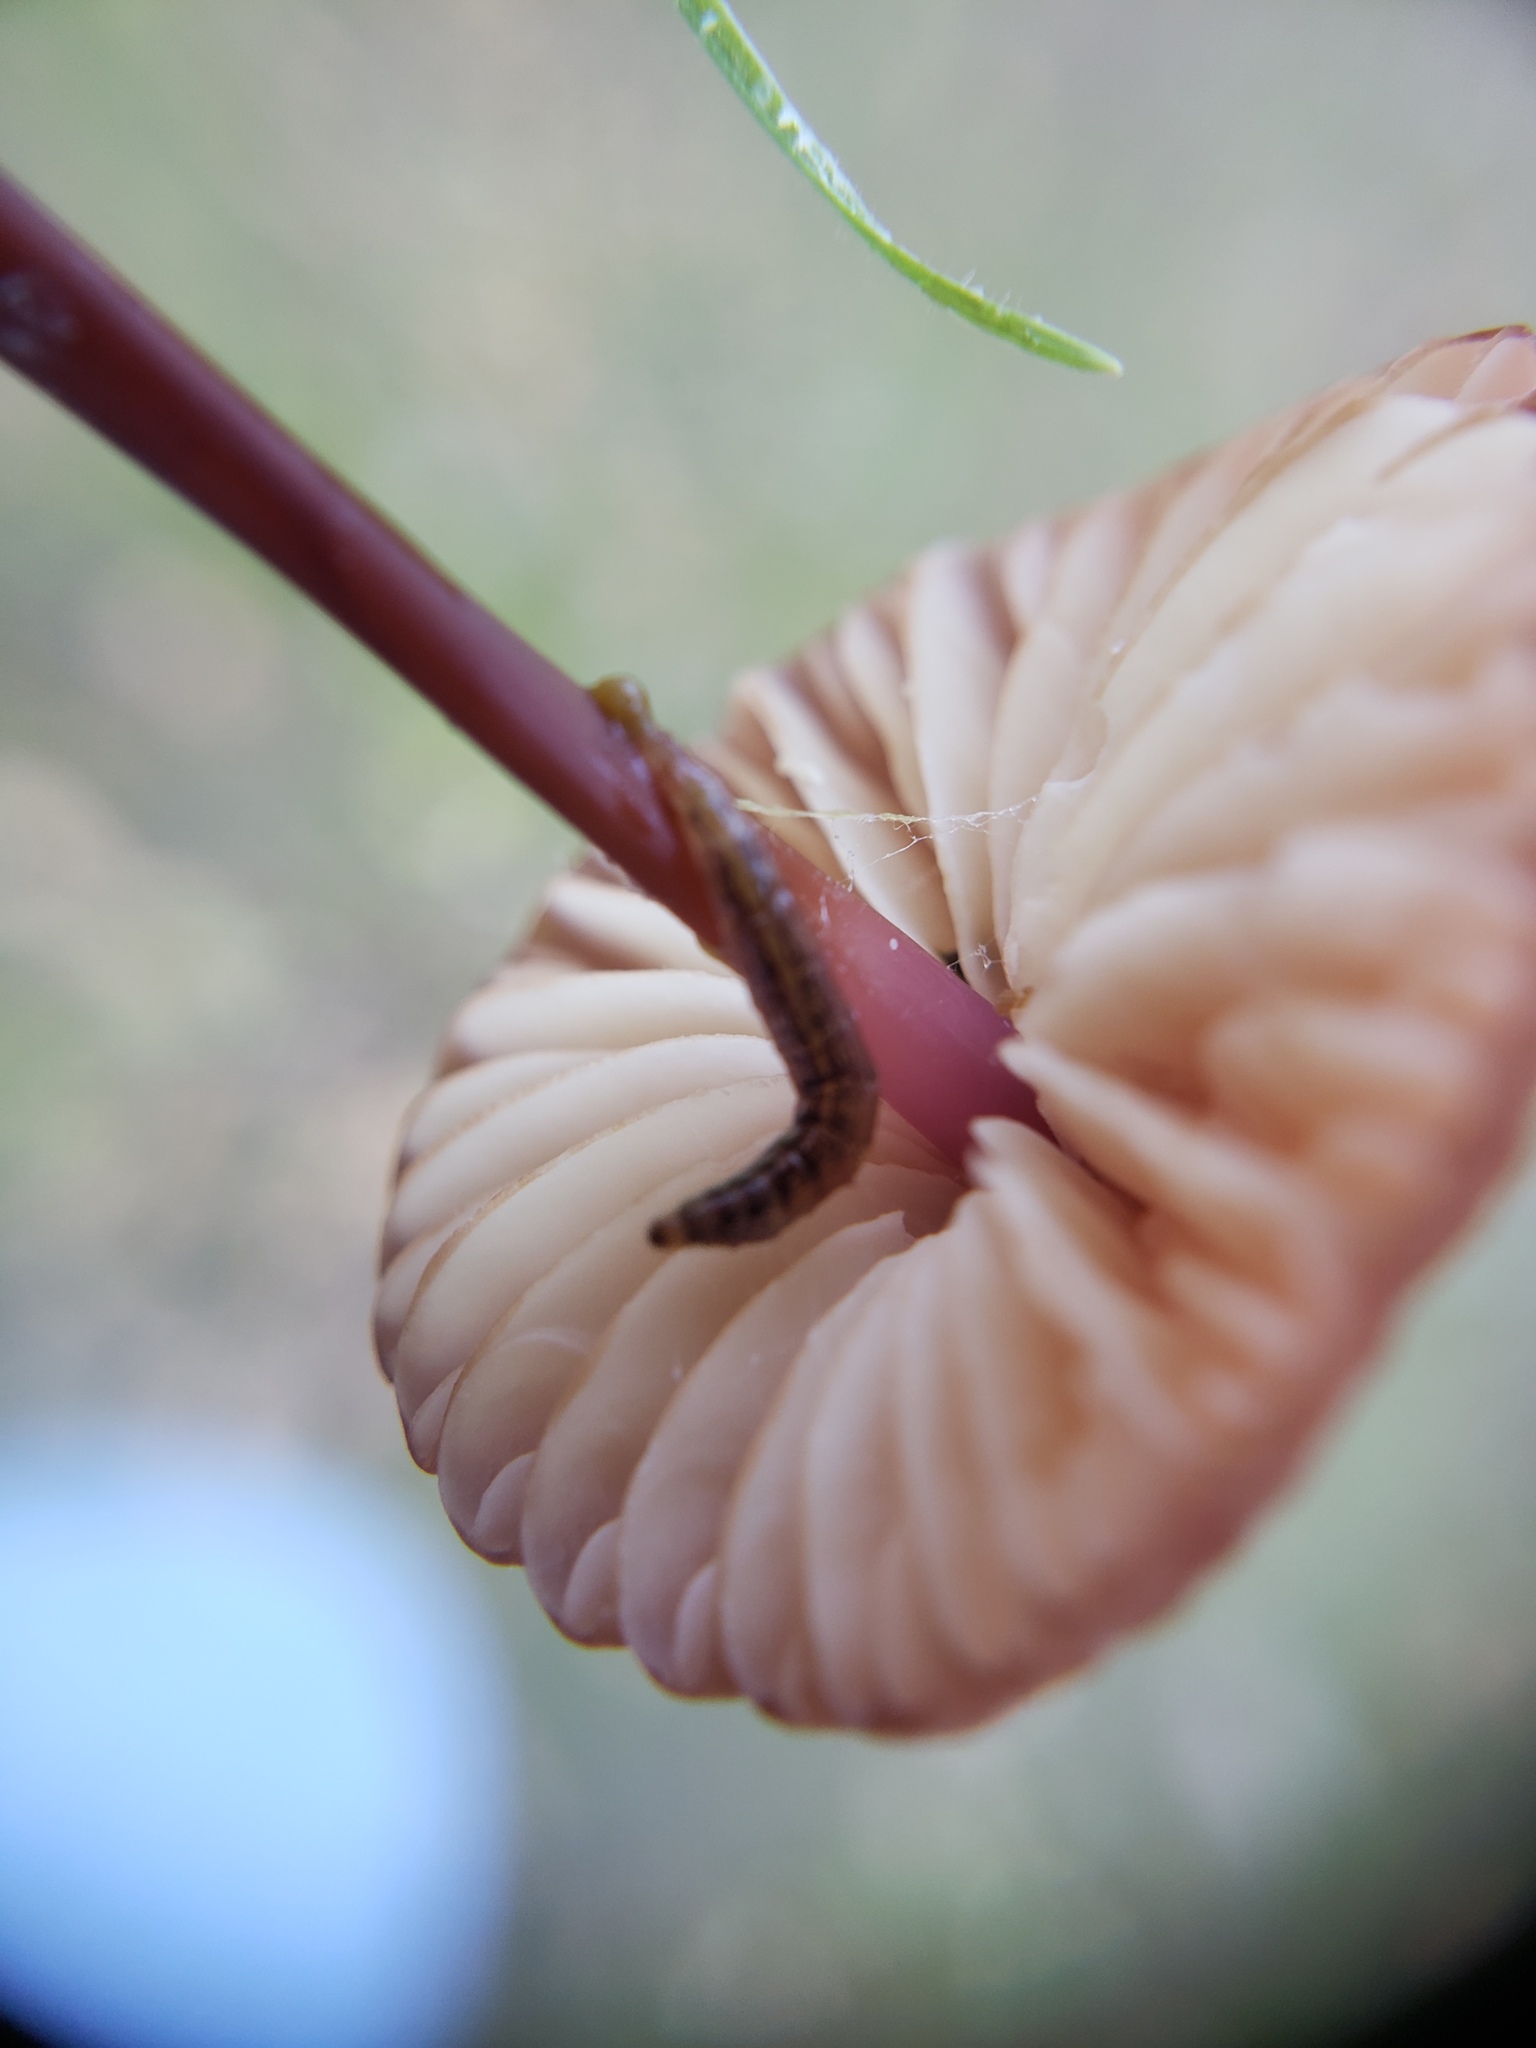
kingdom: Fungi
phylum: Basidiomycota
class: Agaricomycetes
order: Agaricales
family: Marasmiaceae
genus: Marasmius
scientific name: Marasmius plicatulus
